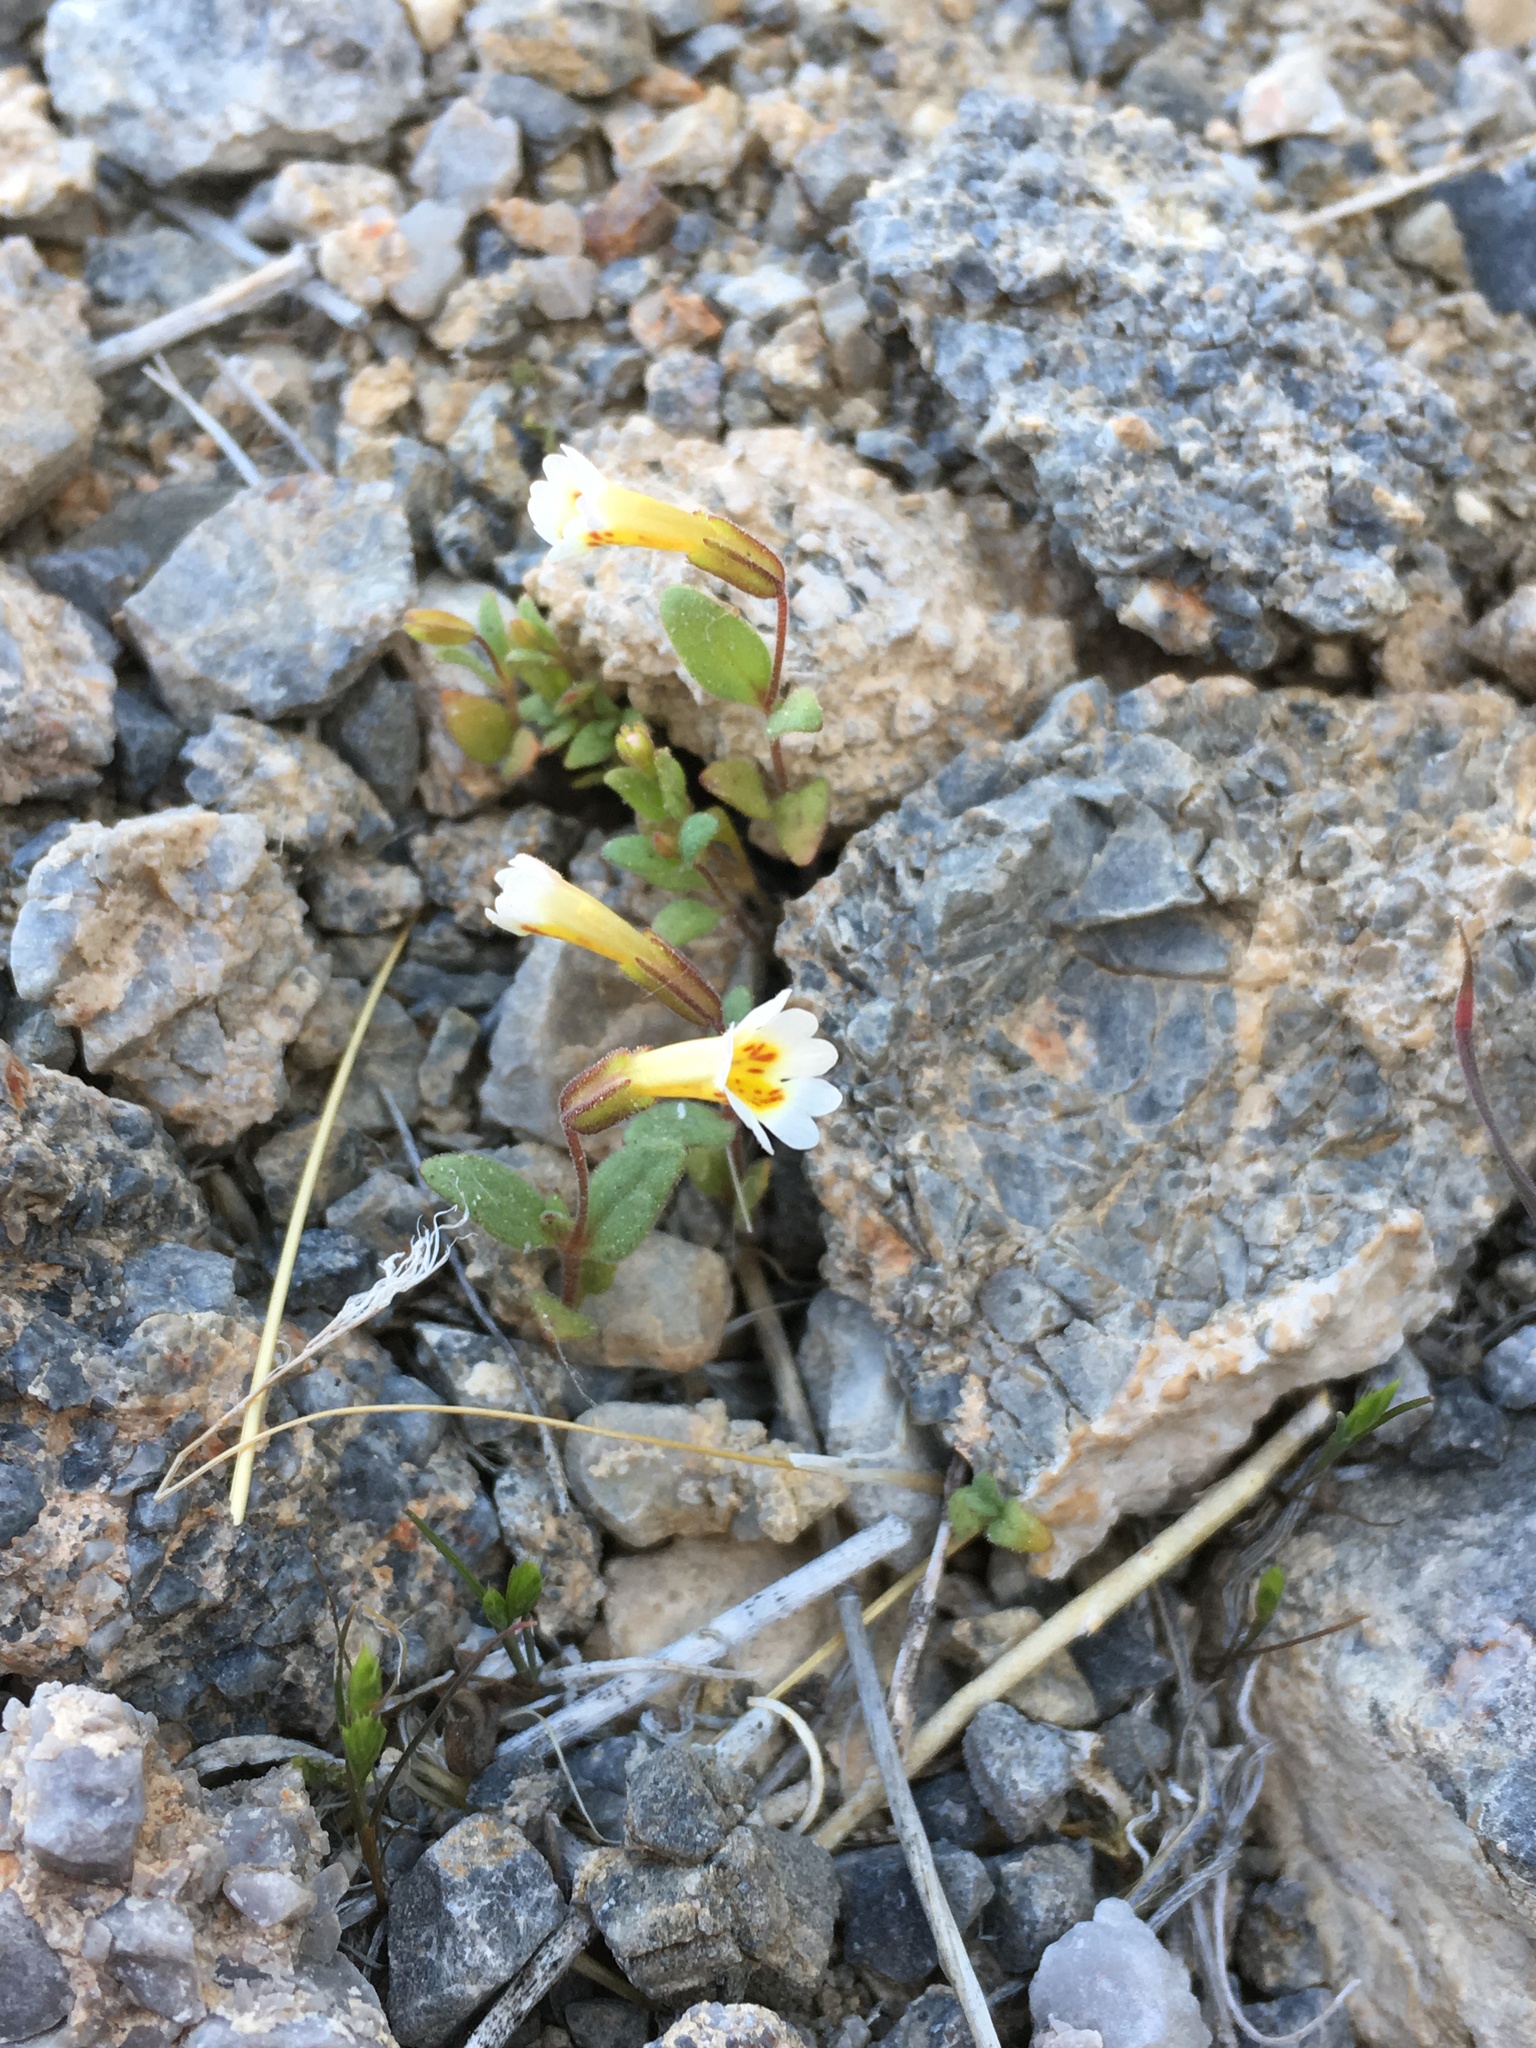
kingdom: Plantae
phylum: Tracheophyta
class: Magnoliopsida
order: Lamiales
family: Phrymaceae
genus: Erythranthe
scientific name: Erythranthe calcicola
